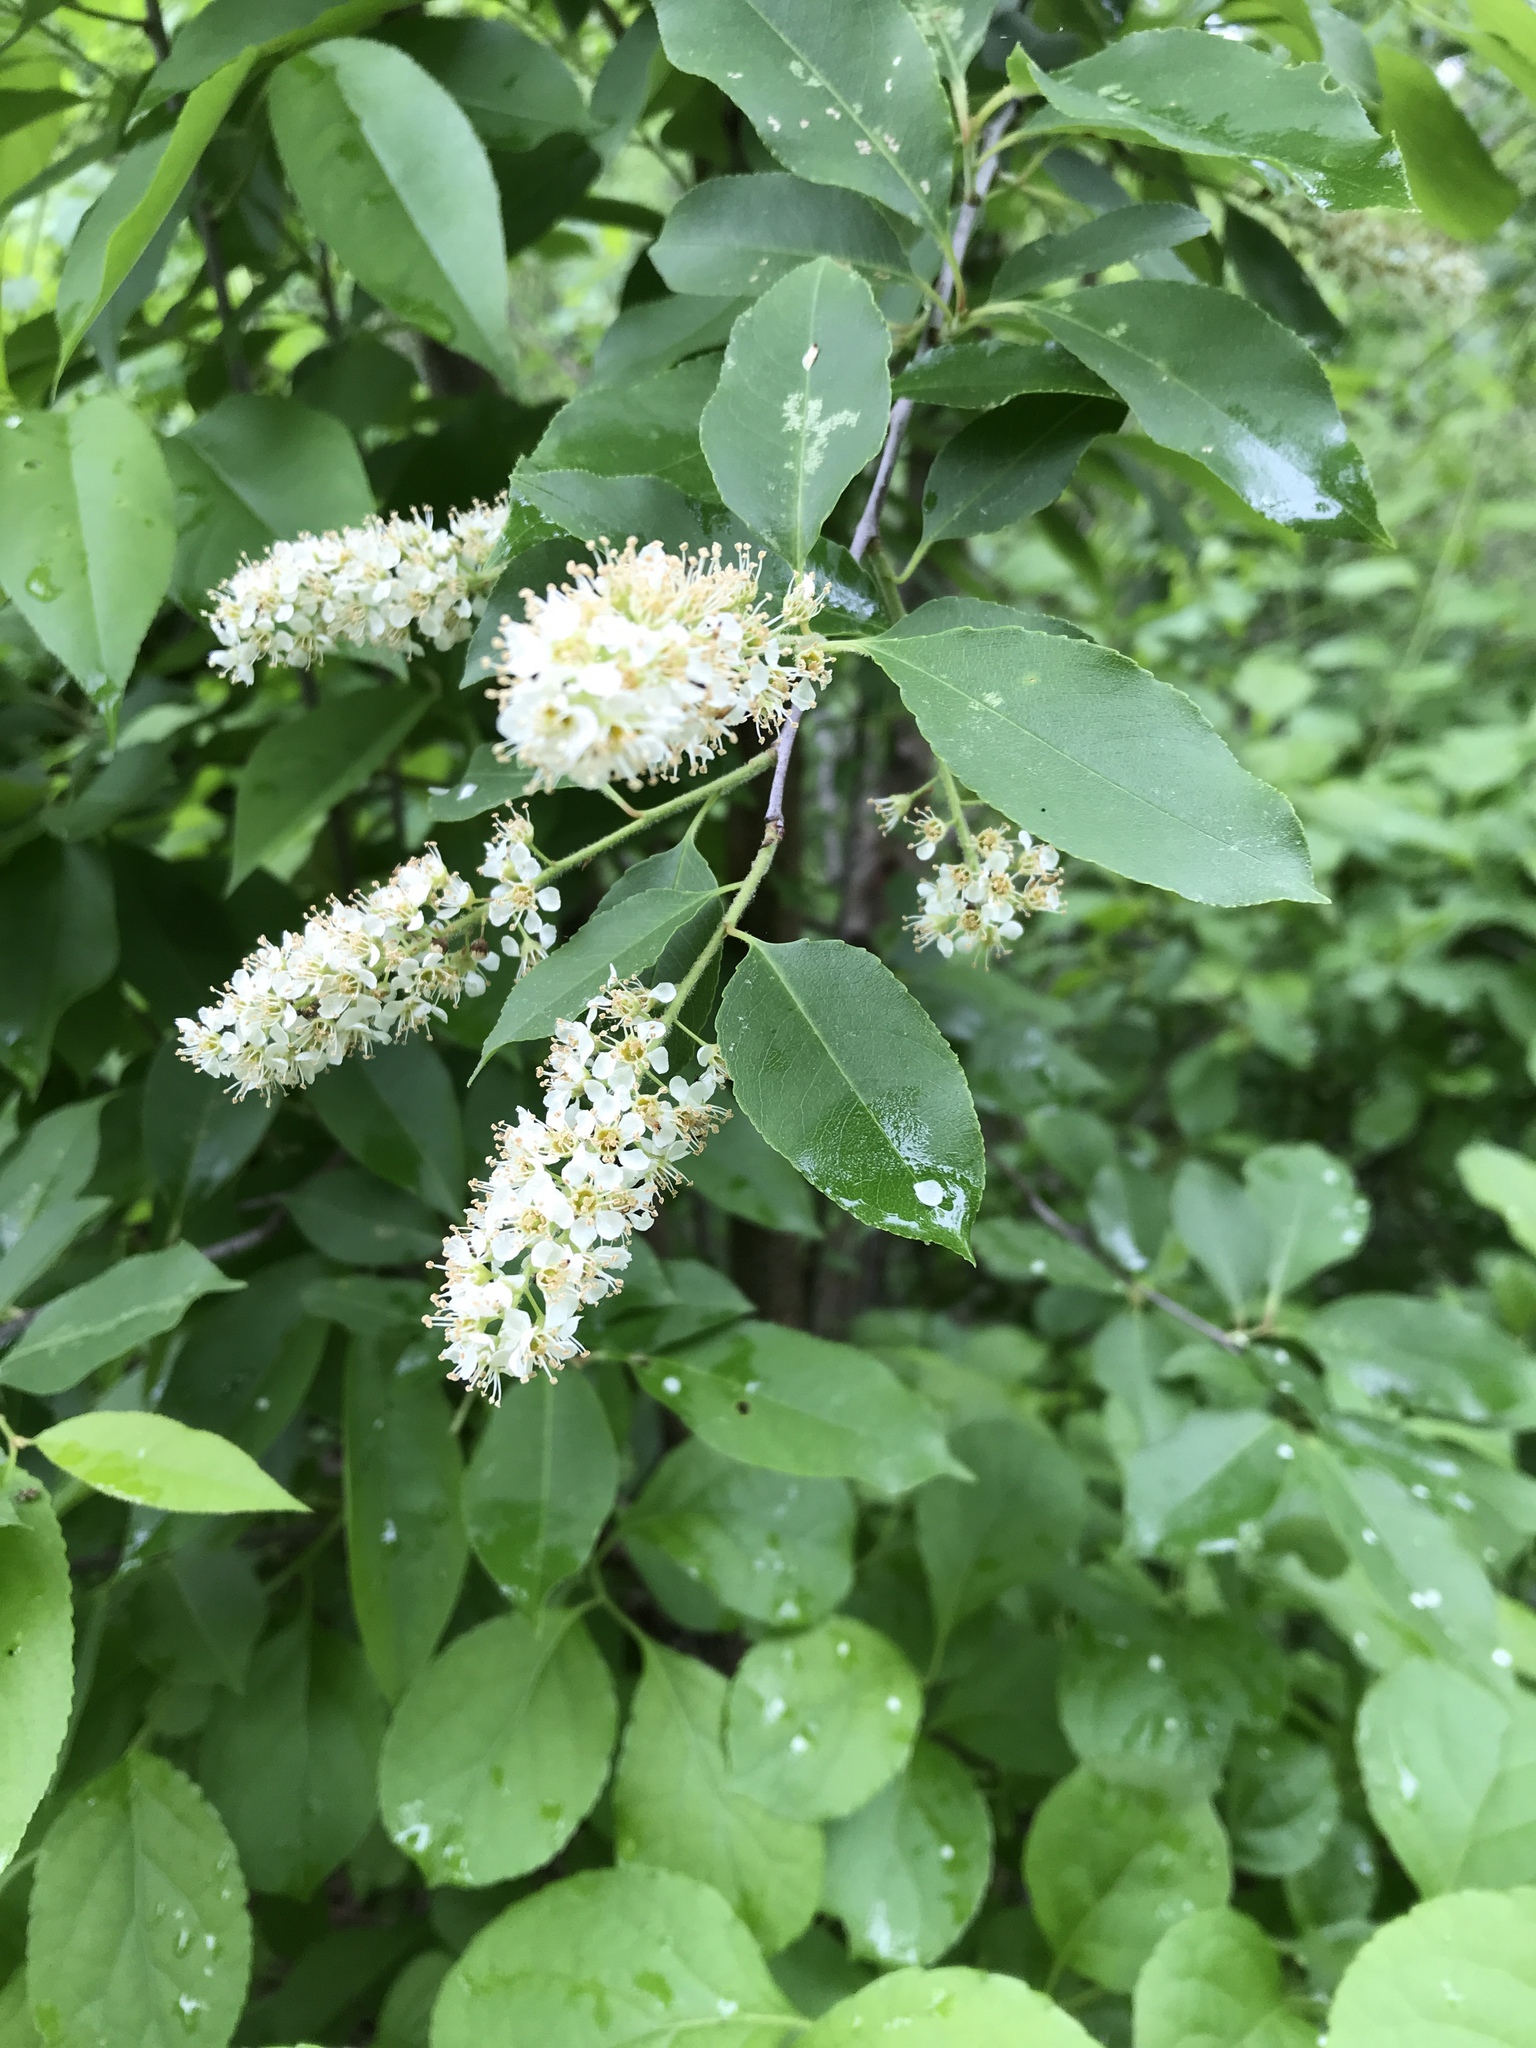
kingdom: Plantae
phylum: Tracheophyta
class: Magnoliopsida
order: Rosales
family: Rosaceae
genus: Prunus
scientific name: Prunus serotina
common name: Black cherry
